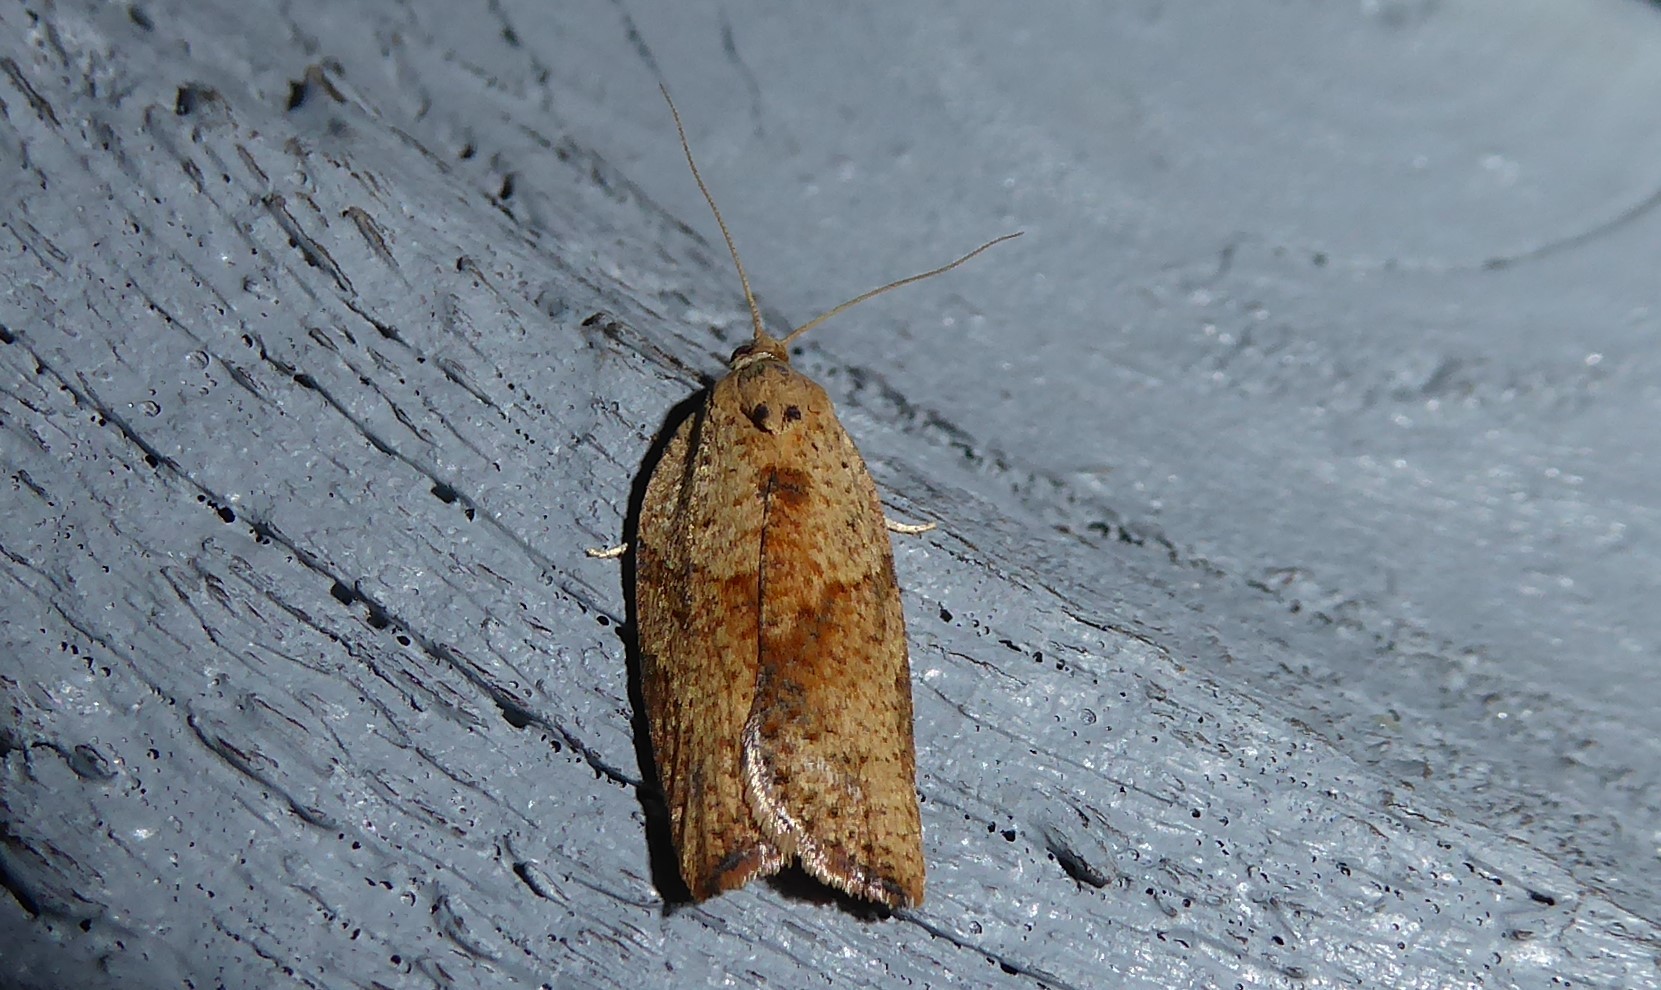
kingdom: Animalia
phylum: Arthropoda
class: Insecta
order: Lepidoptera
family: Tortricidae
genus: Epiphyas
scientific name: Epiphyas postvittana
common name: Light brown apple moth
